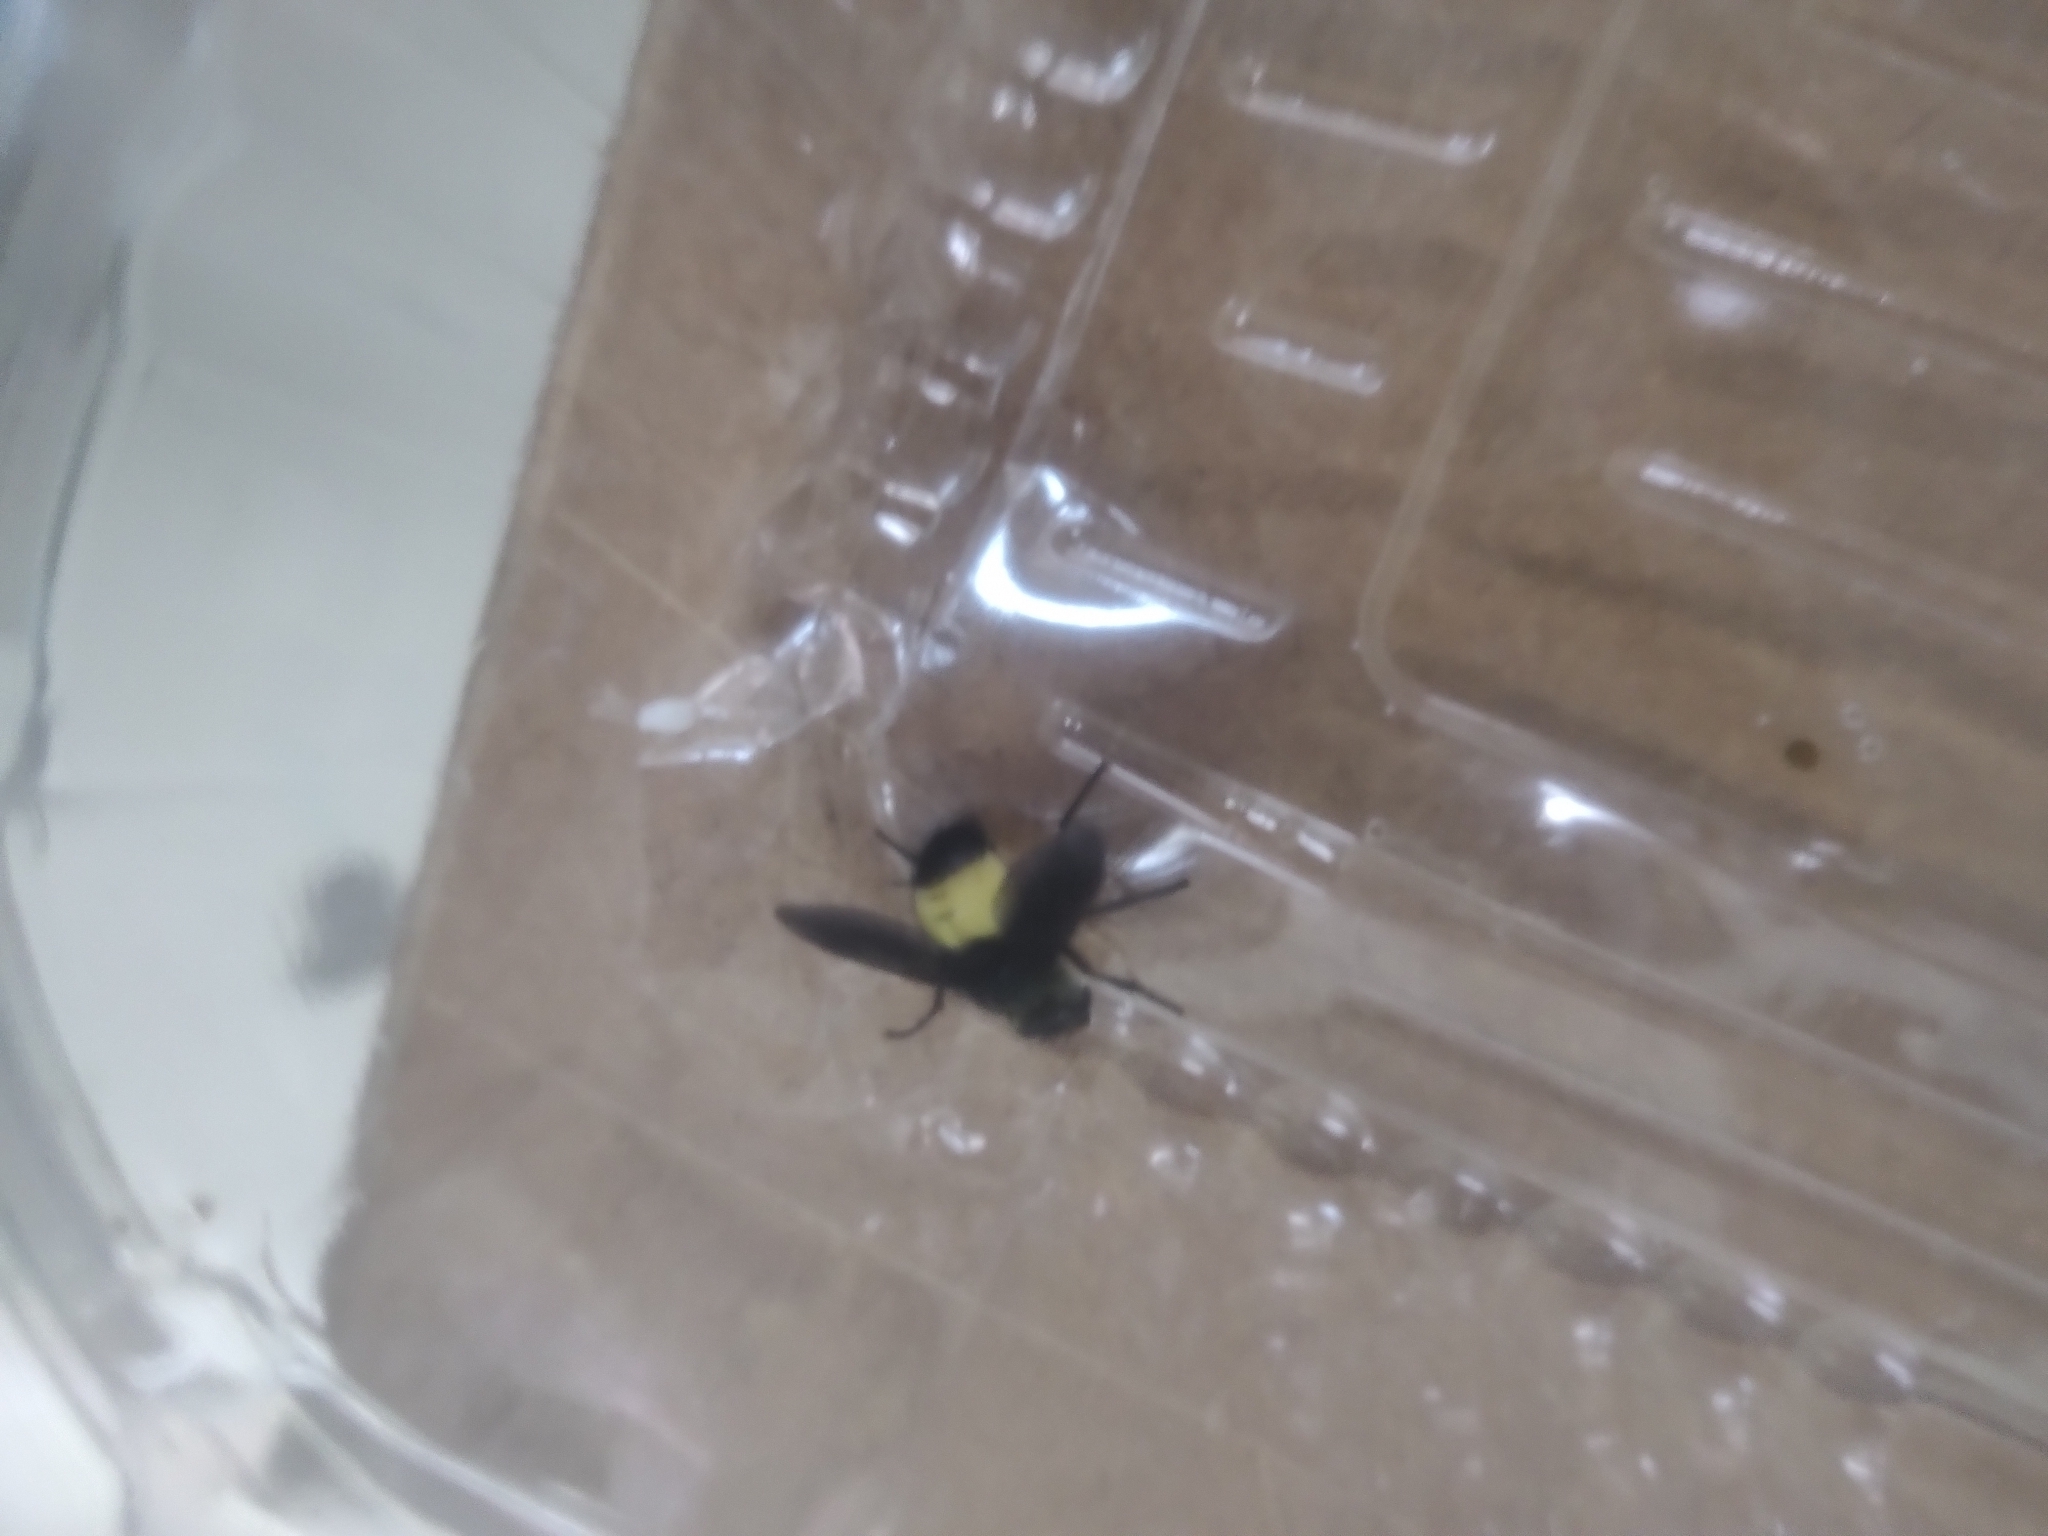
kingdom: Animalia
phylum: Arthropoda
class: Insecta
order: Diptera
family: Tachinidae
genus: Xanthozona
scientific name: Xanthozona melanopyga
